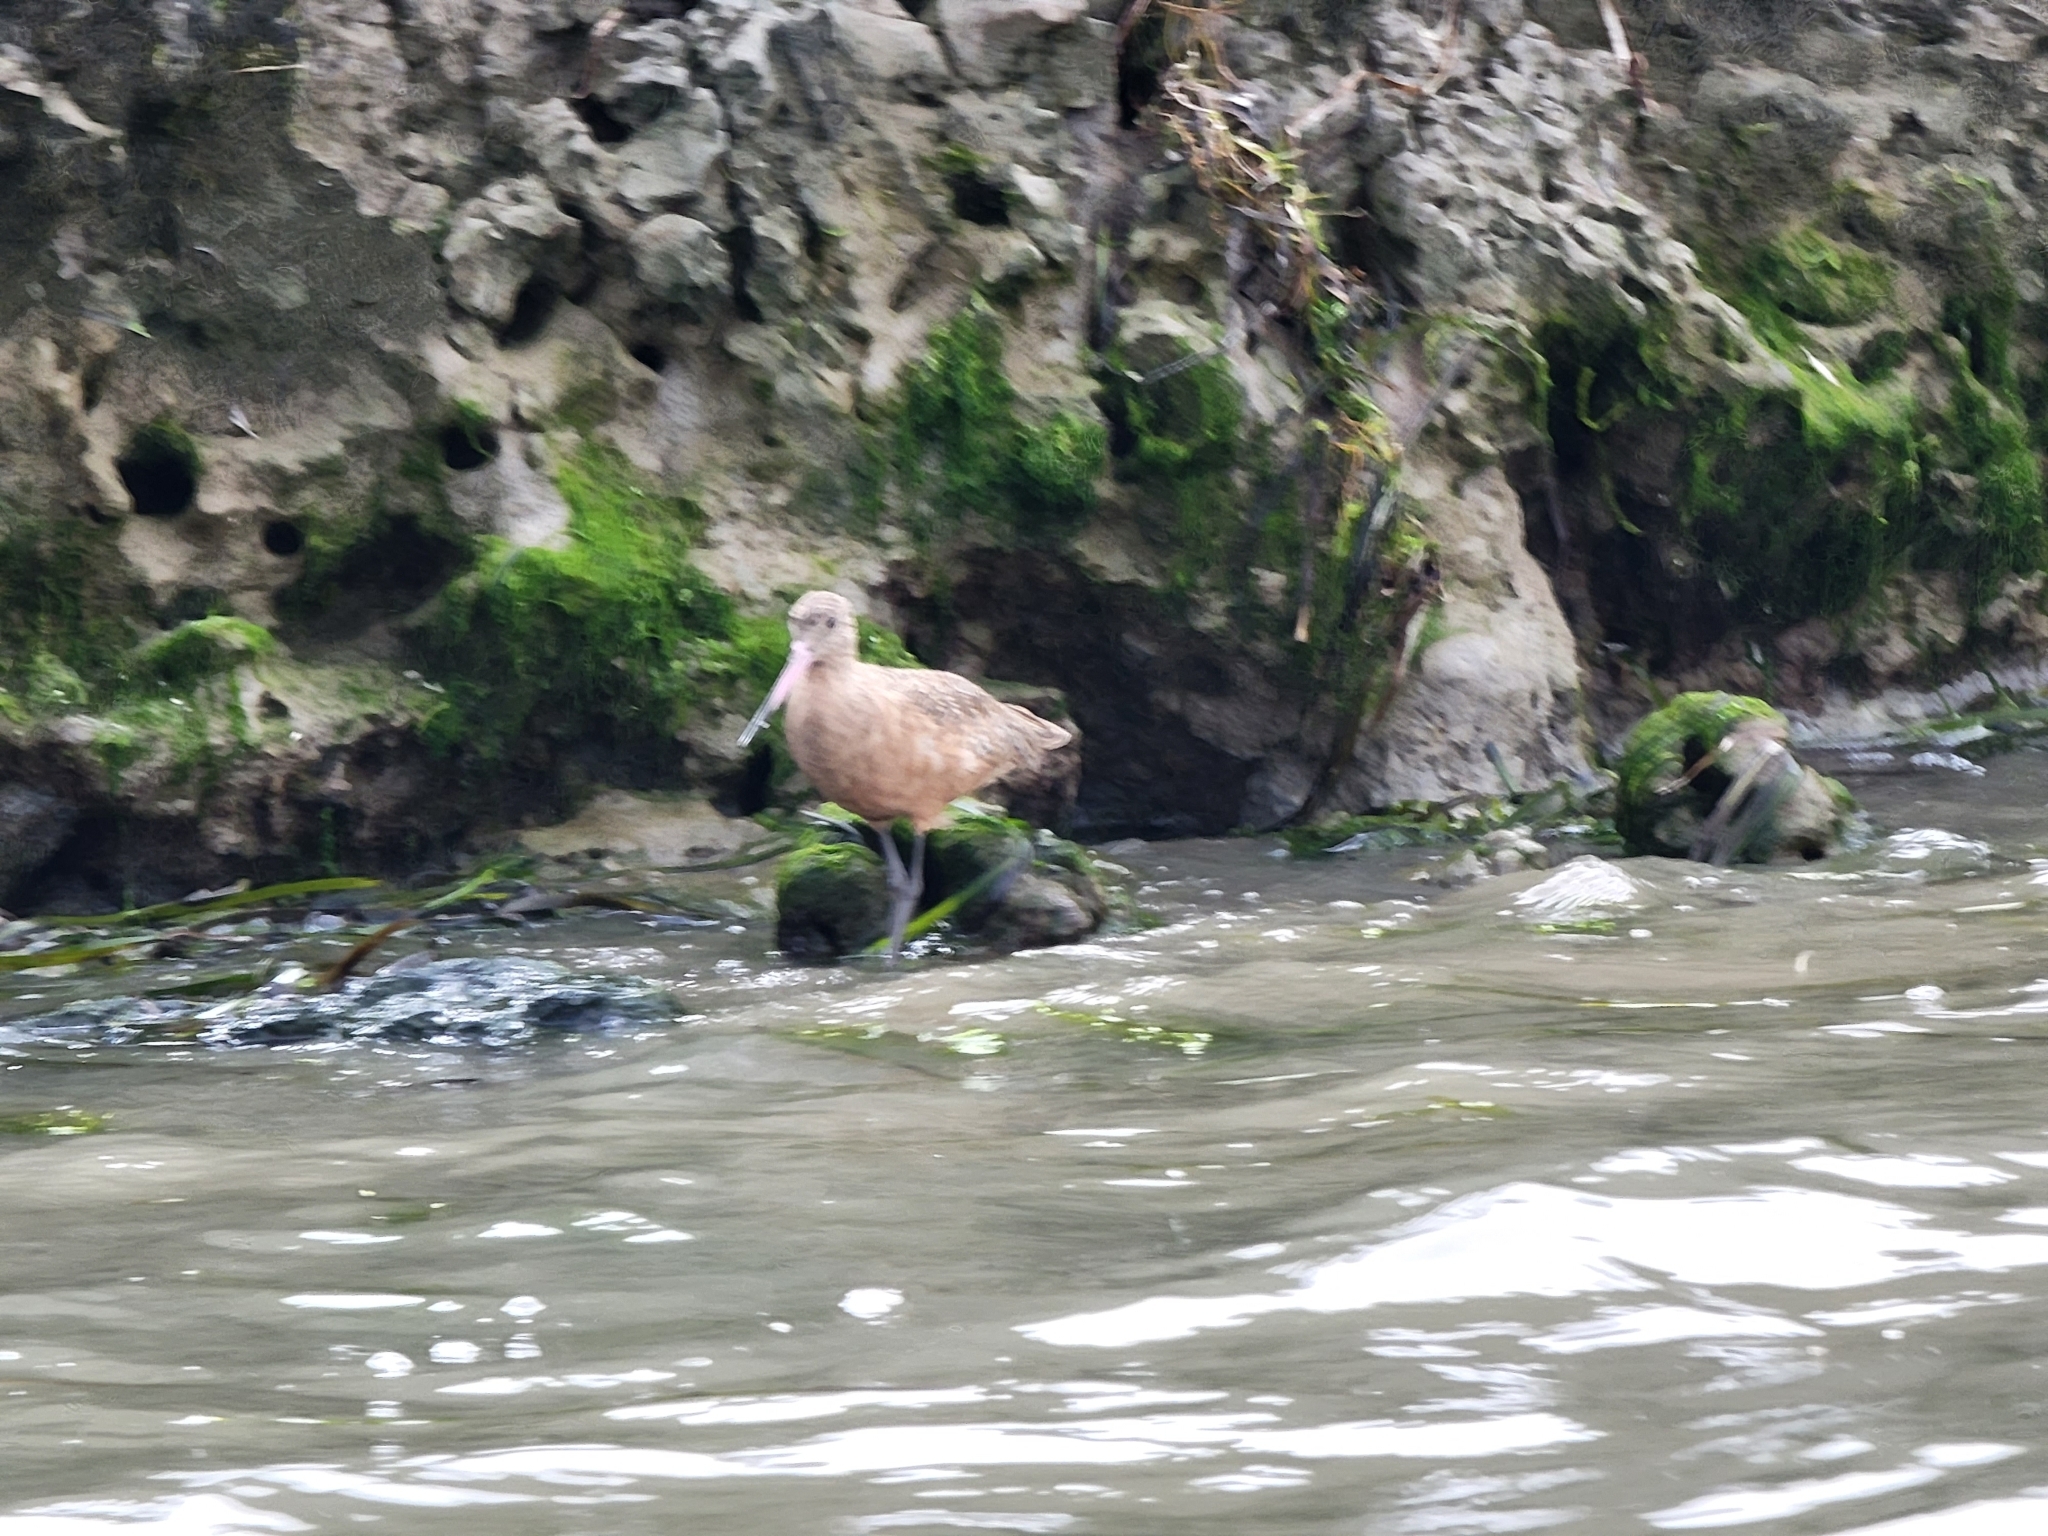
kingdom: Animalia
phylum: Chordata
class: Aves
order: Charadriiformes
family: Scolopacidae
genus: Limosa
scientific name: Limosa fedoa
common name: Marbled godwit
